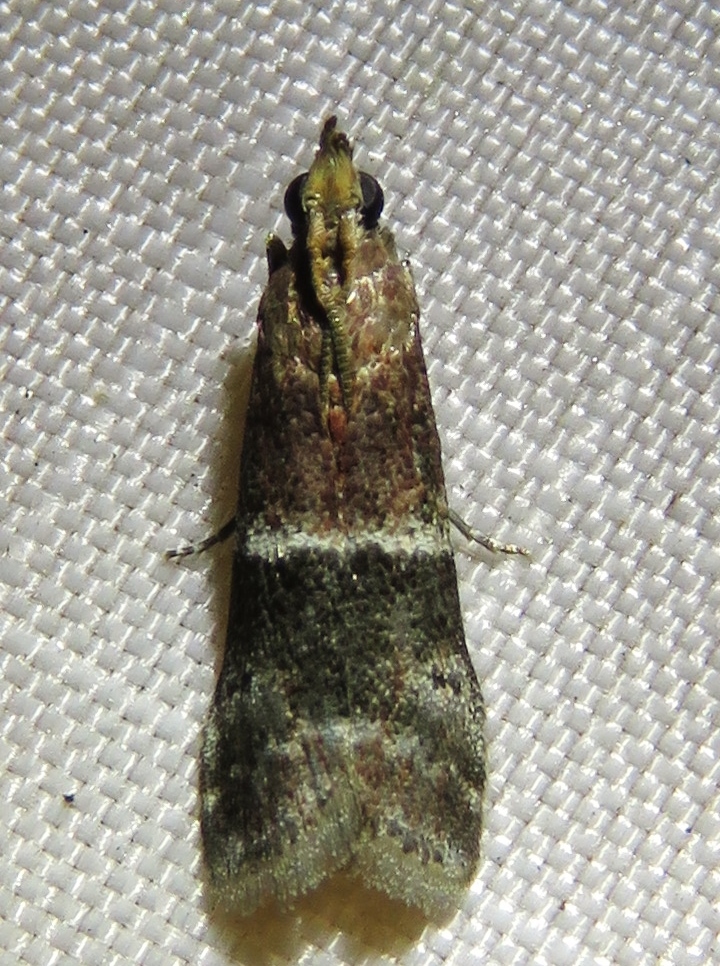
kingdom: Animalia
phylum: Arthropoda
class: Insecta
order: Lepidoptera
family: Pyralidae
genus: Moodna
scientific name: Moodna ostrinella
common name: Darker moodna moth
